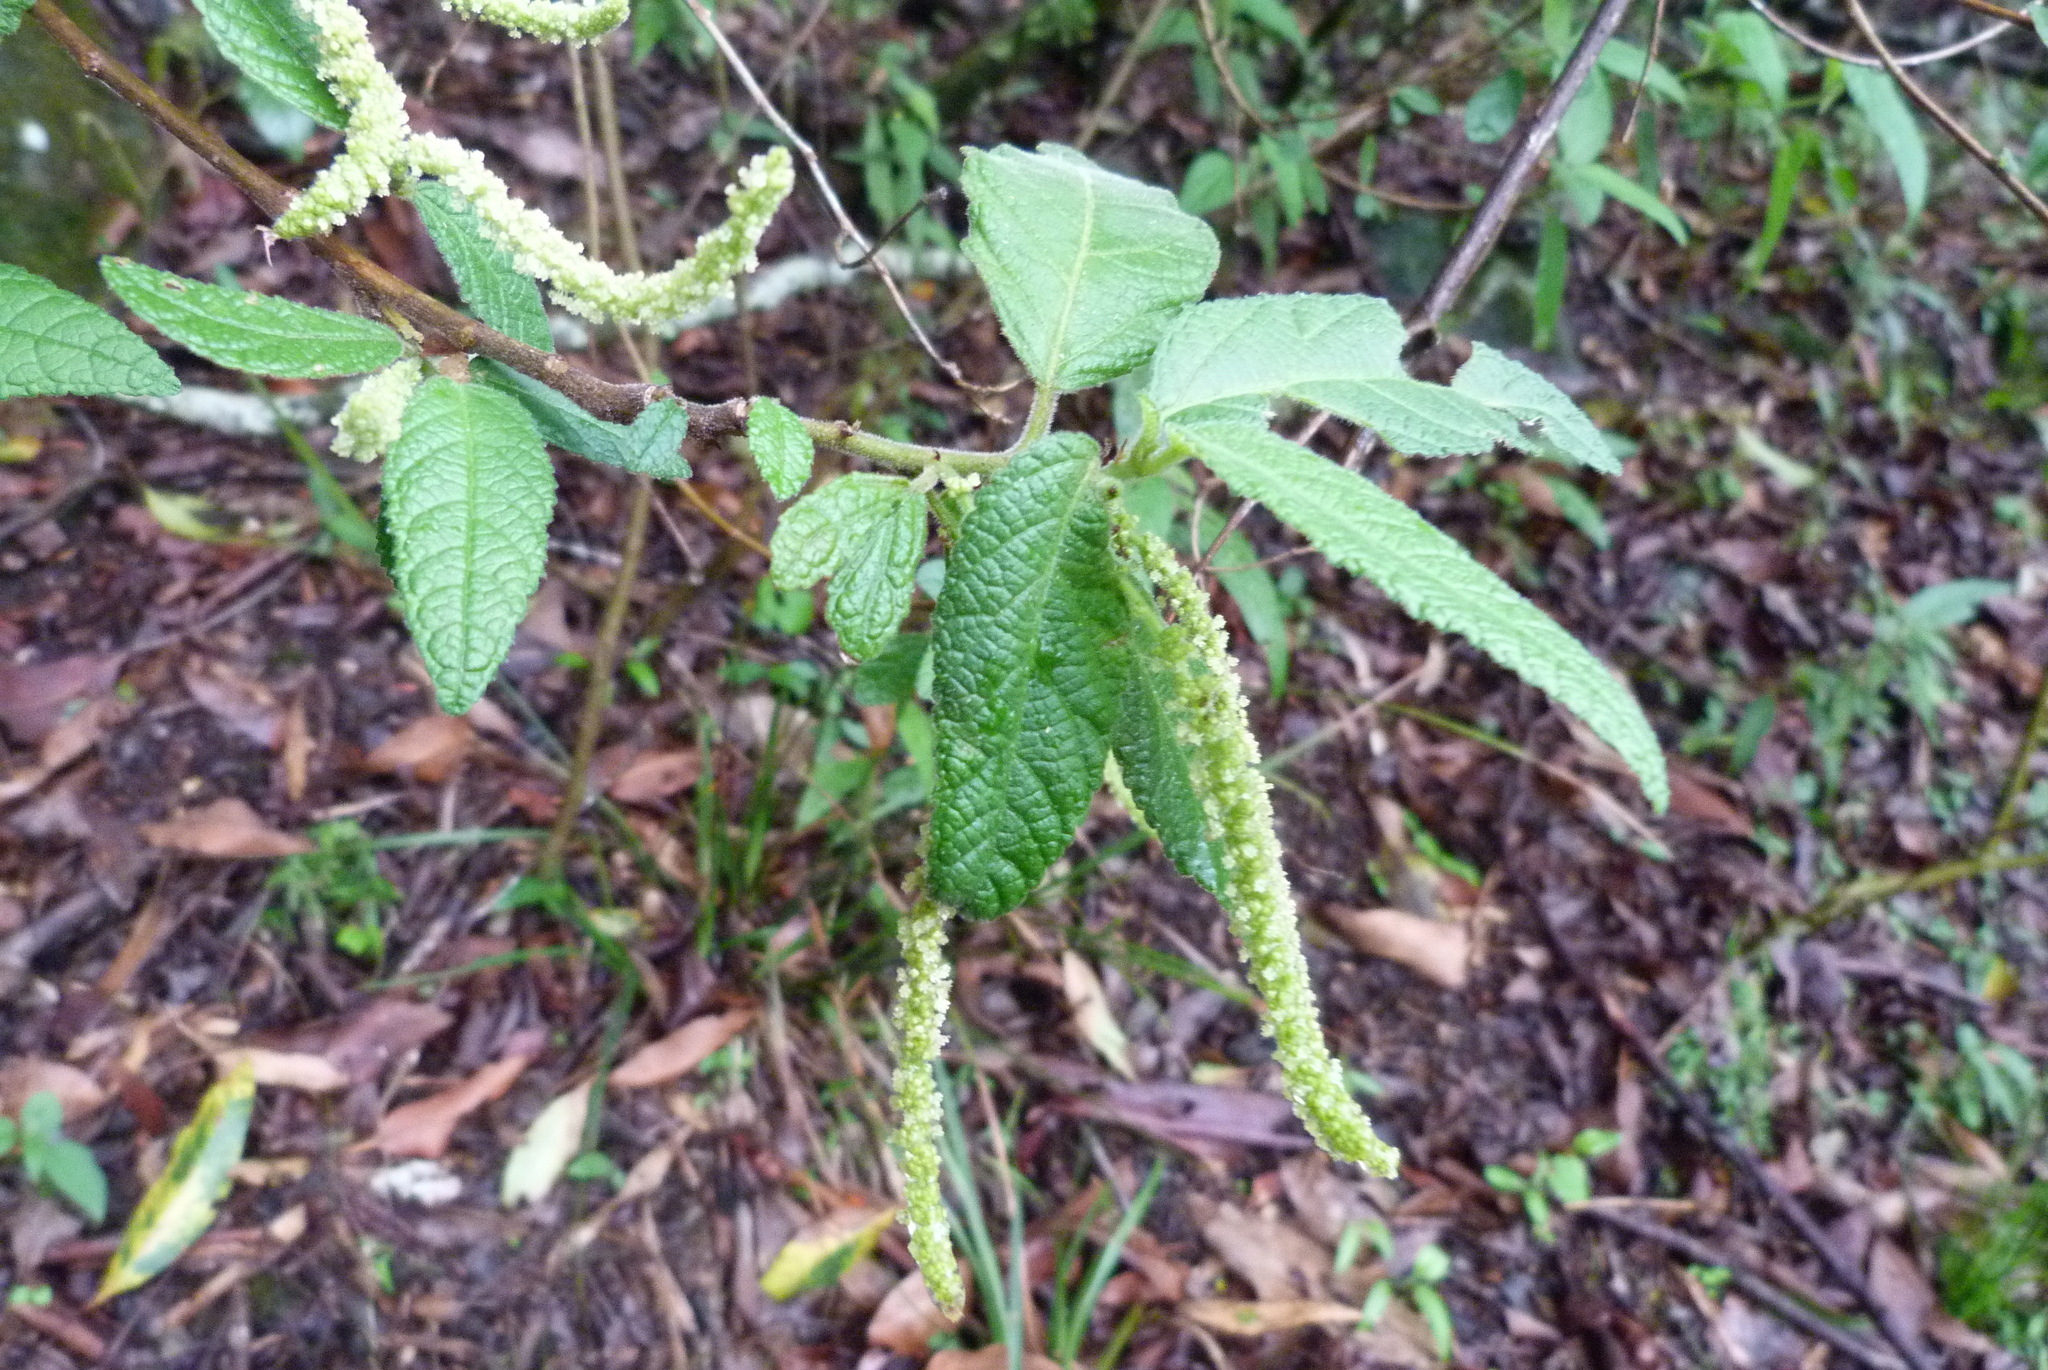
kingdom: Plantae
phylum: Tracheophyta
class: Magnoliopsida
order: Malpighiales
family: Euphorbiaceae
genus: Acalypha
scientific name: Acalypha nemorum
